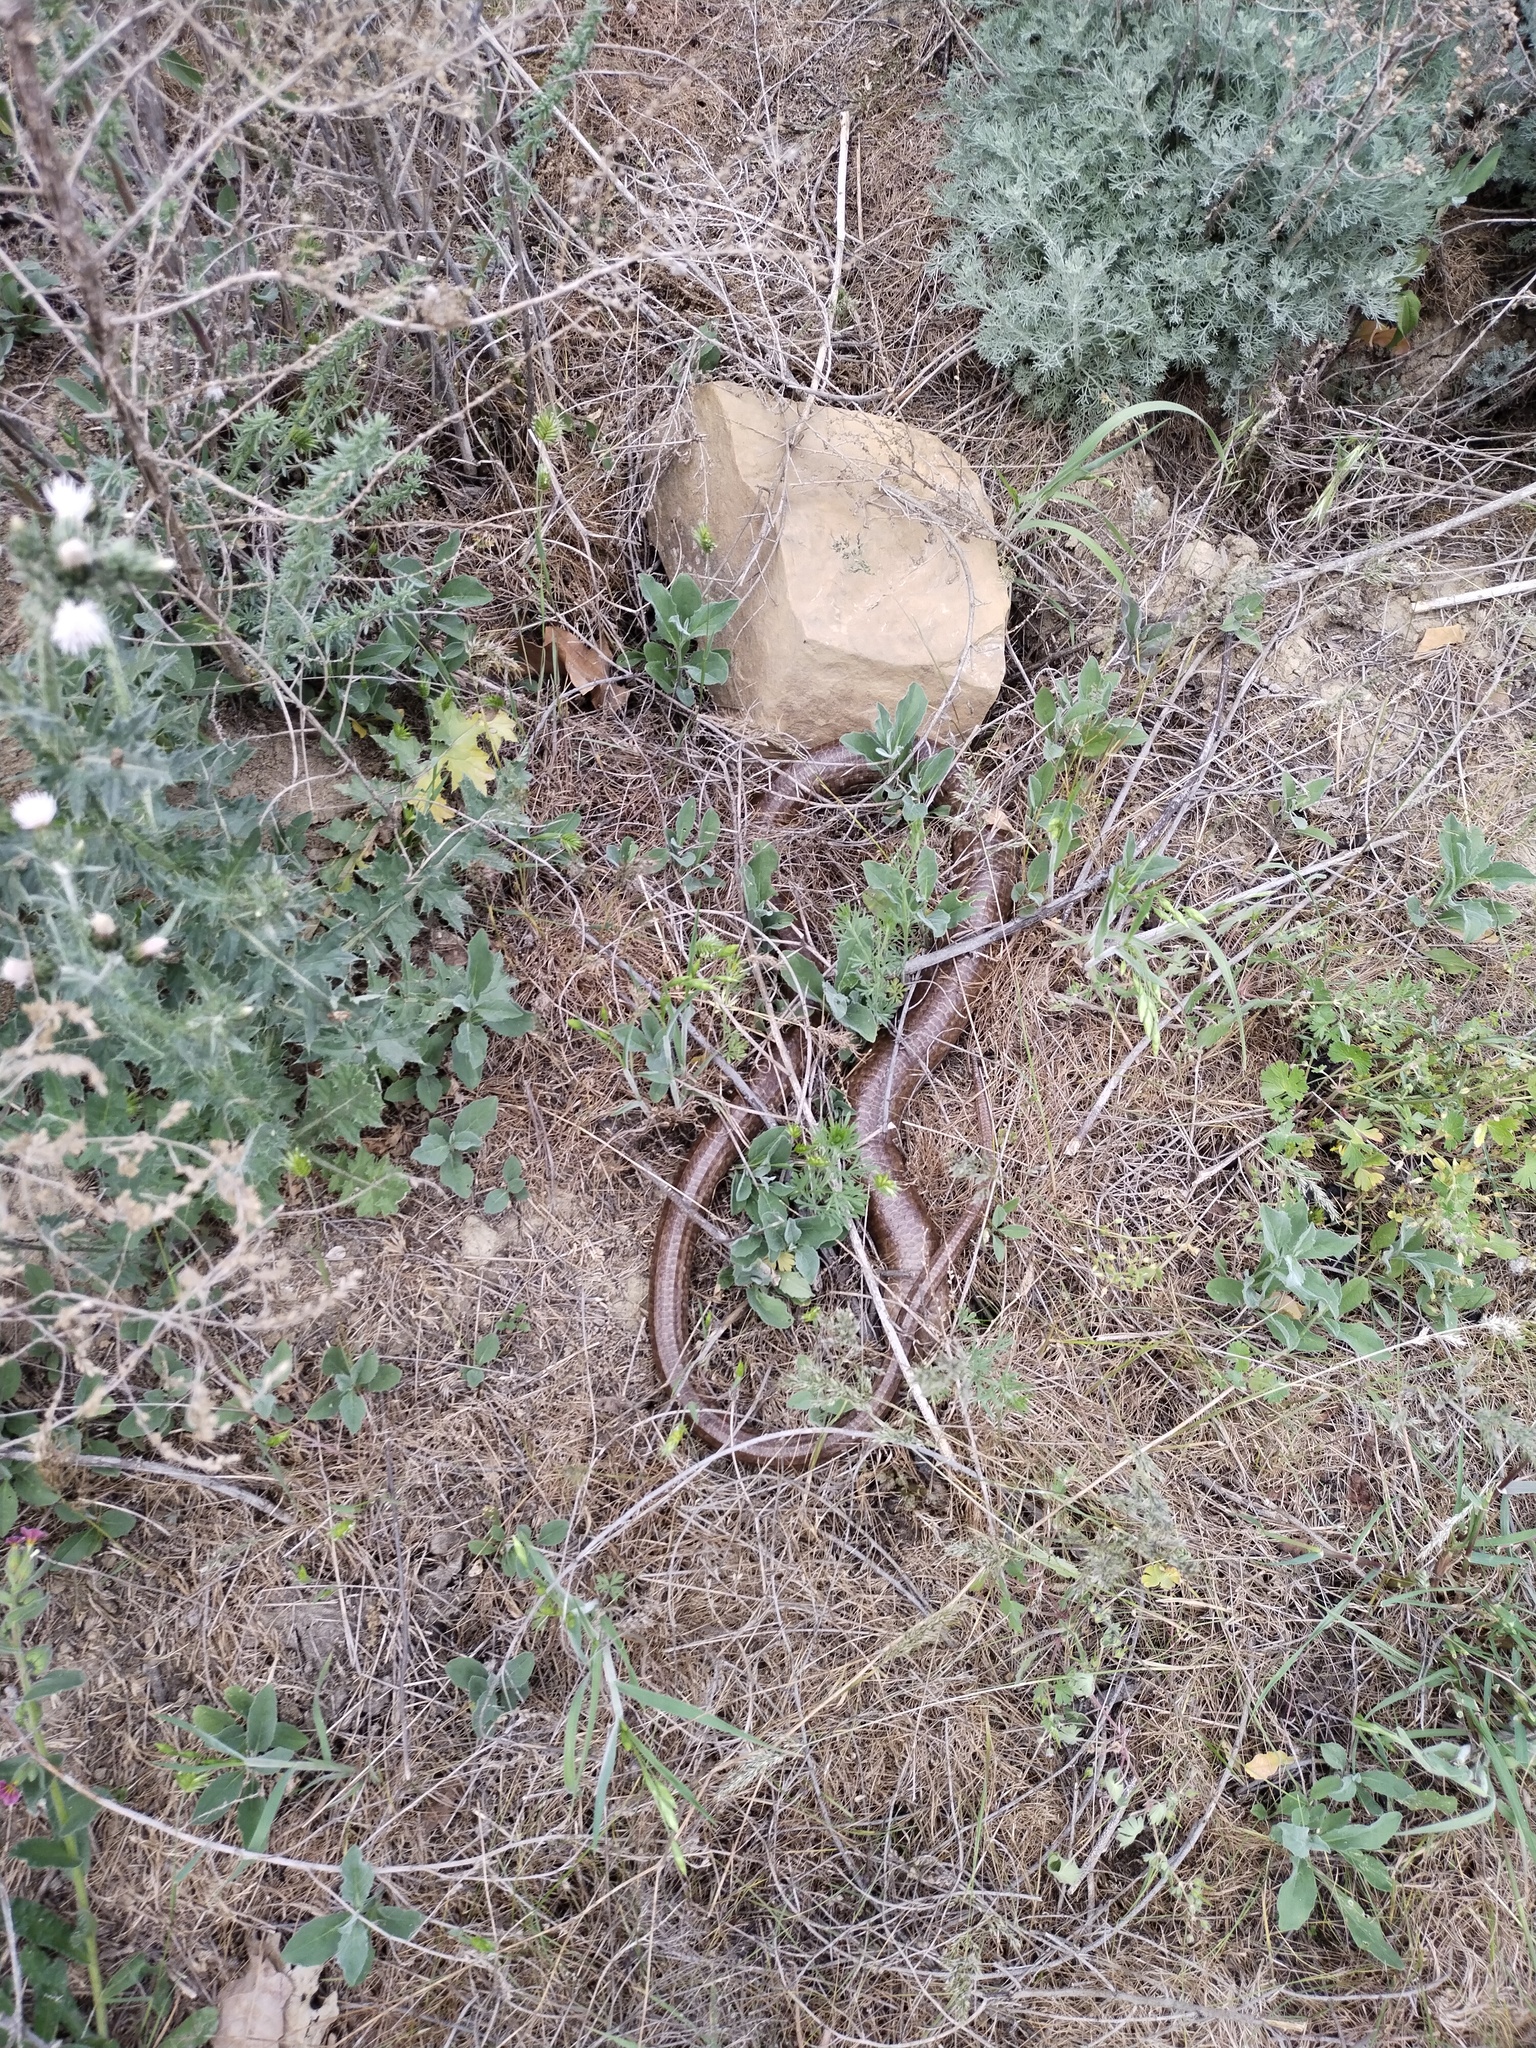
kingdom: Animalia
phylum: Chordata
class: Squamata
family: Anguidae
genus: Pseudopus
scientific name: Pseudopus apodus
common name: European glass lizard
